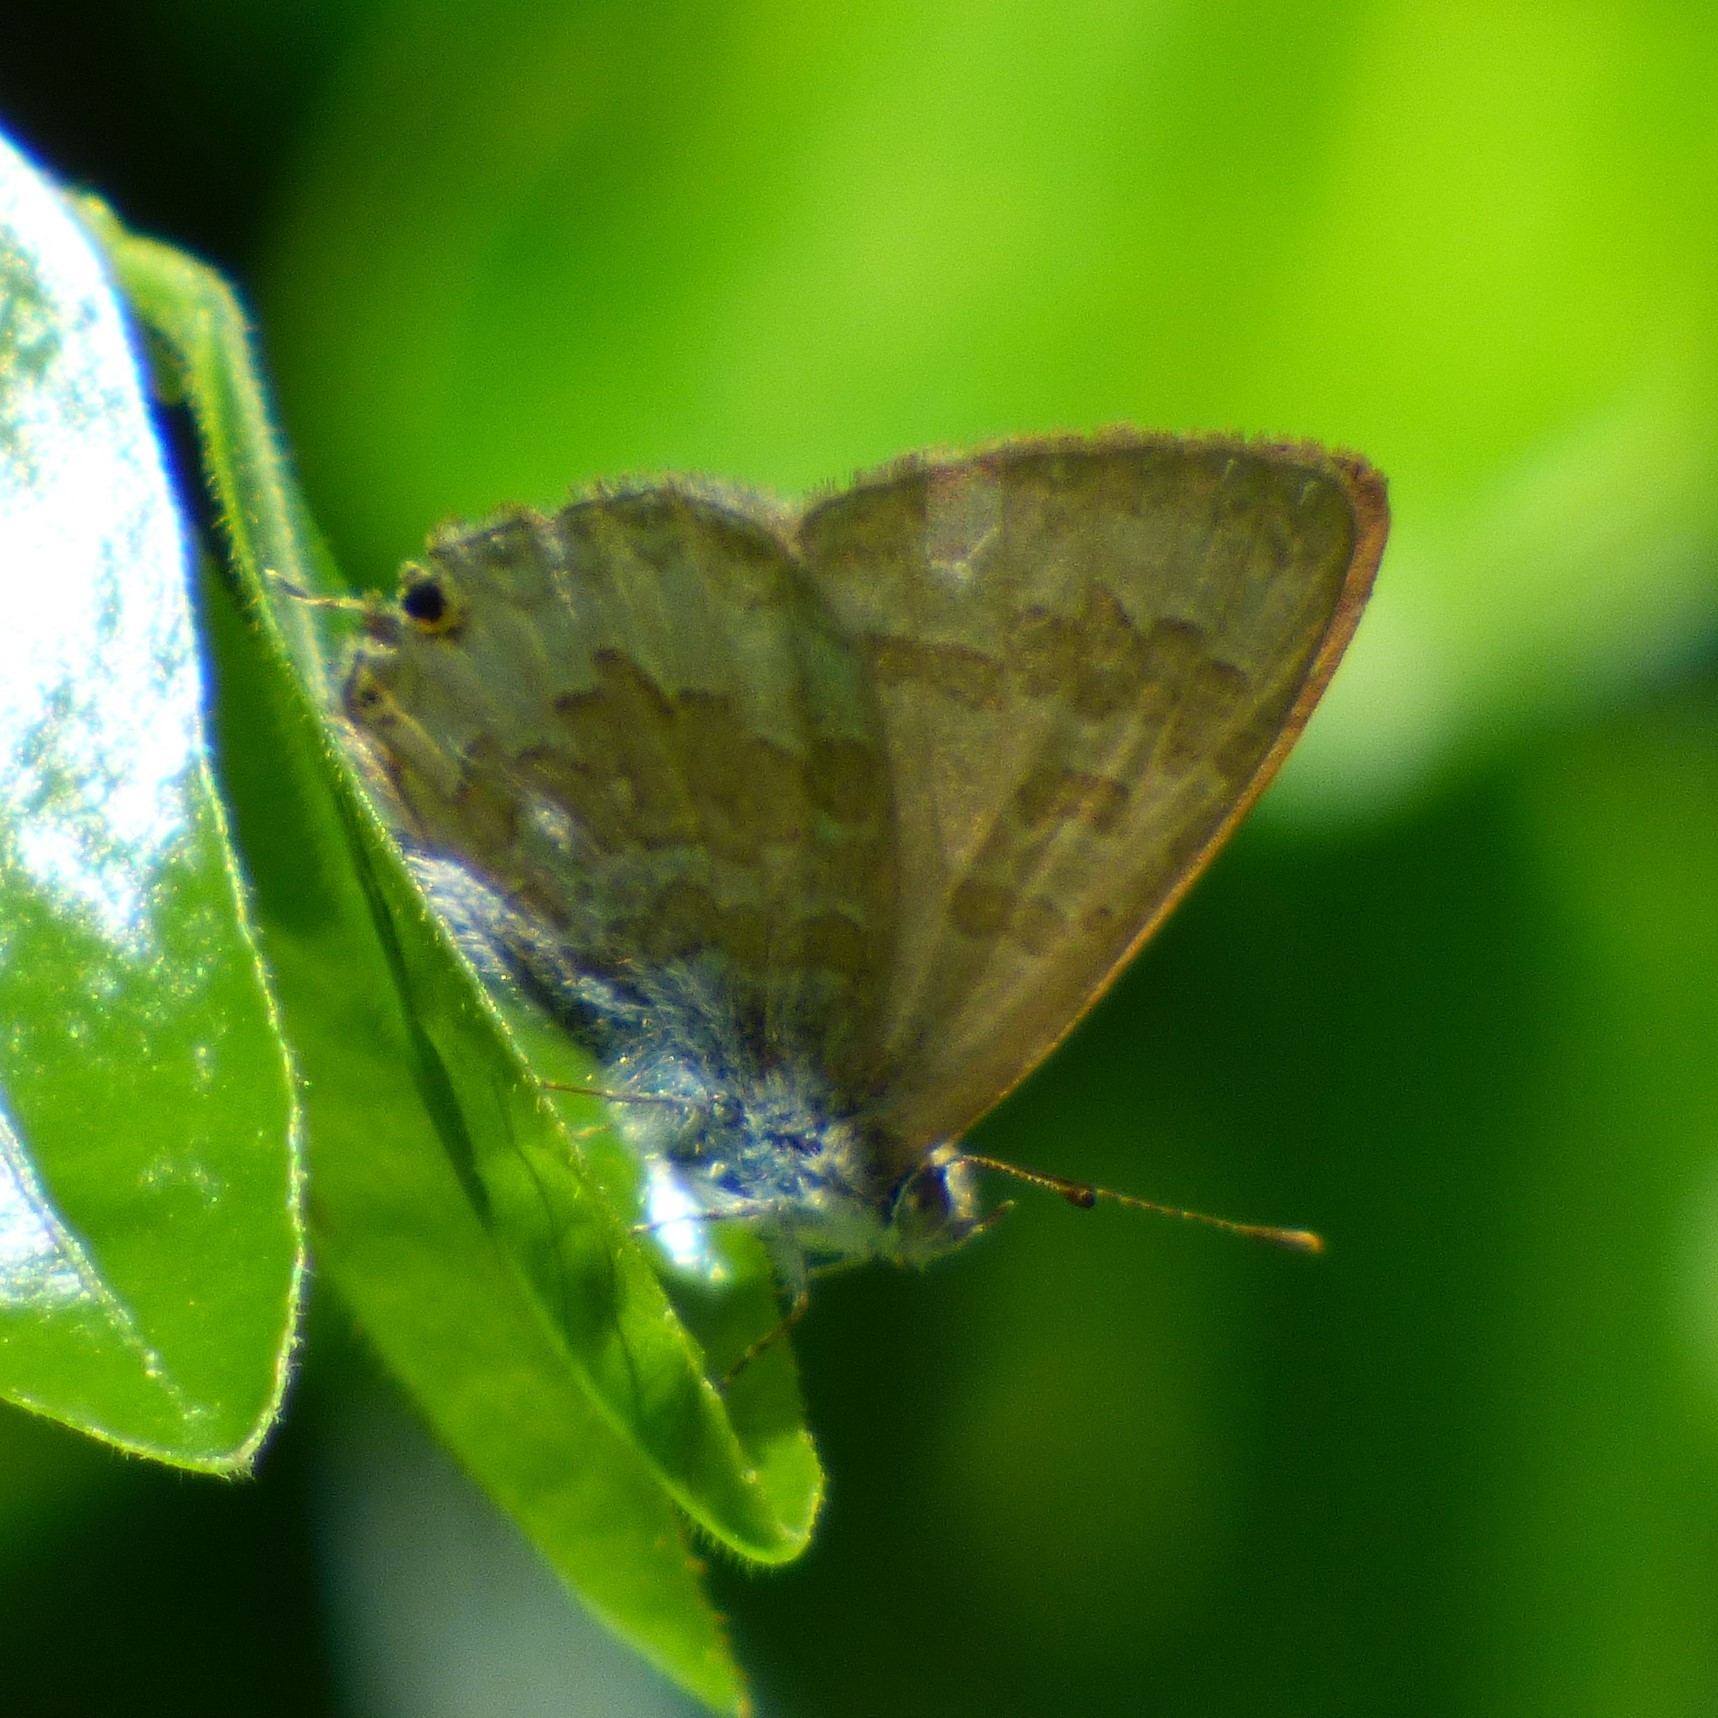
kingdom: Animalia
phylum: Arthropoda
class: Insecta
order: Lepidoptera
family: Lycaenidae
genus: Catopyrops
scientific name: Catopyrops florinda
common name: Speckled line-blue
